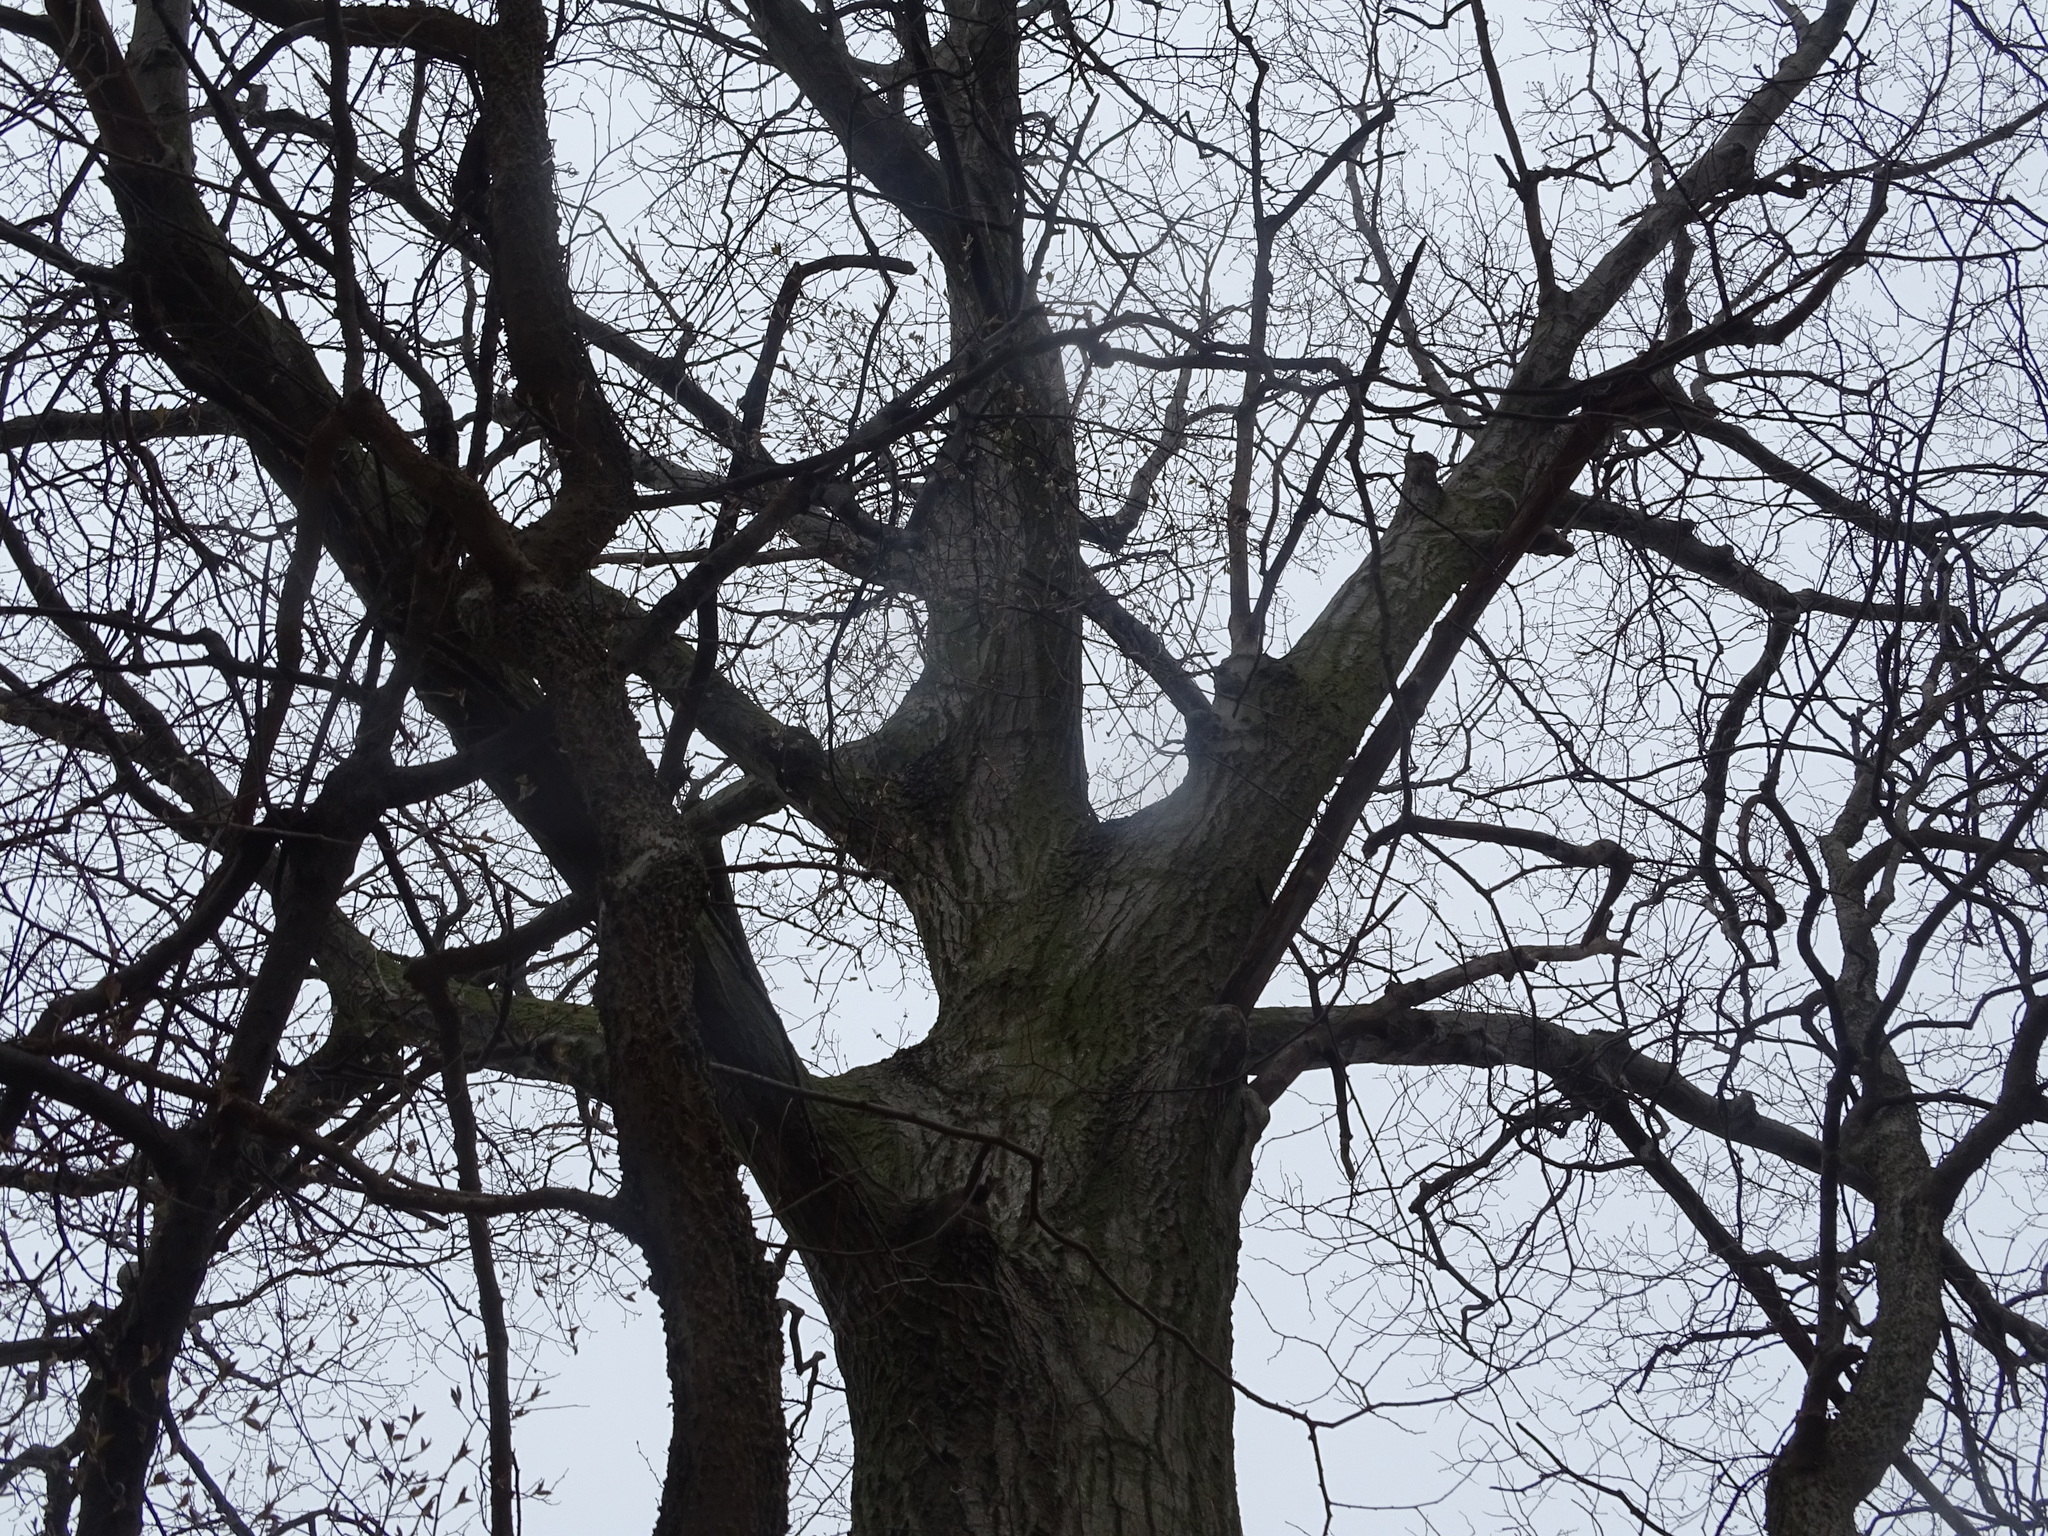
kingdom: Plantae
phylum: Tracheophyta
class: Magnoliopsida
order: Fagales
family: Fagaceae
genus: Quercus
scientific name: Quercus rubra
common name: Red oak
